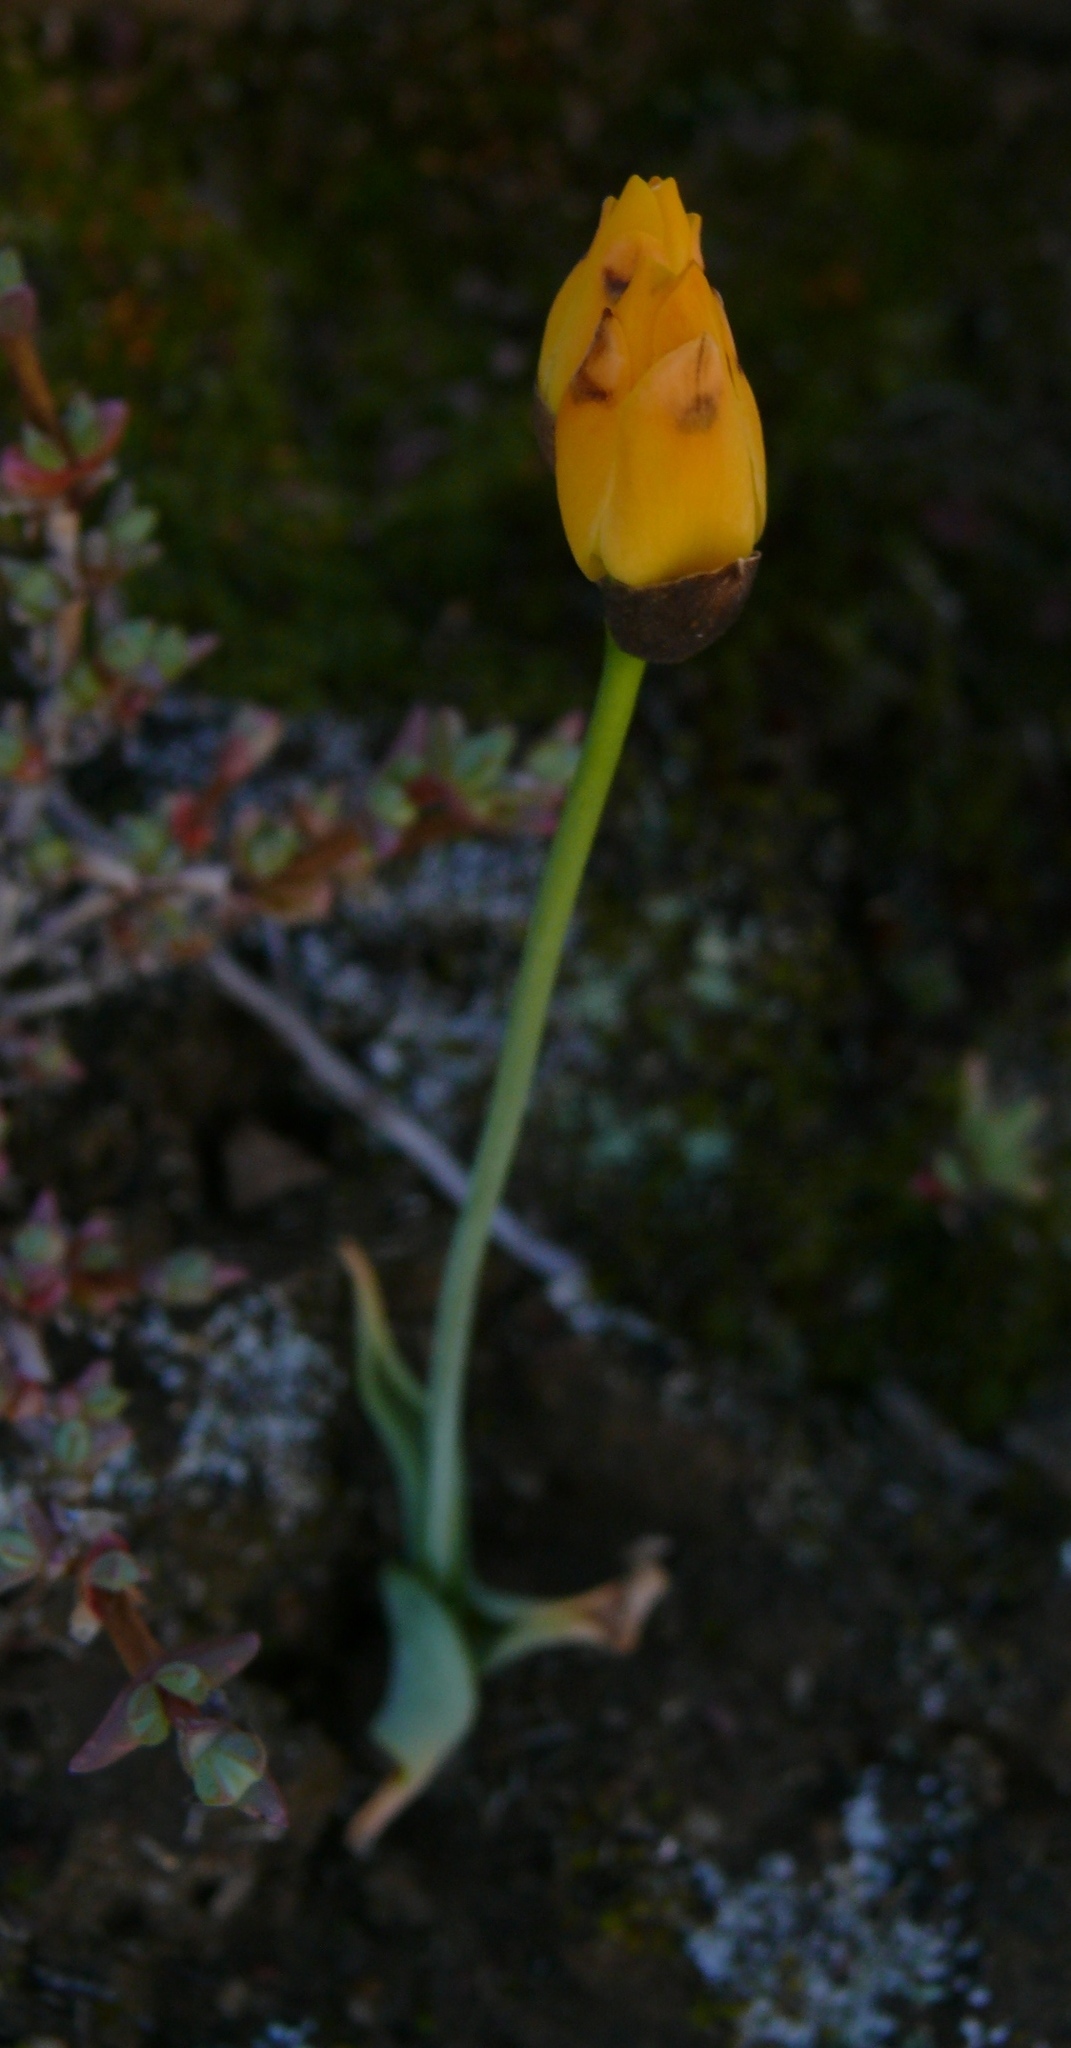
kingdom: Plantae
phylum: Tracheophyta
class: Liliopsida
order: Asparagales
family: Asparagaceae
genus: Ornithogalum
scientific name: Ornithogalum maculatum
